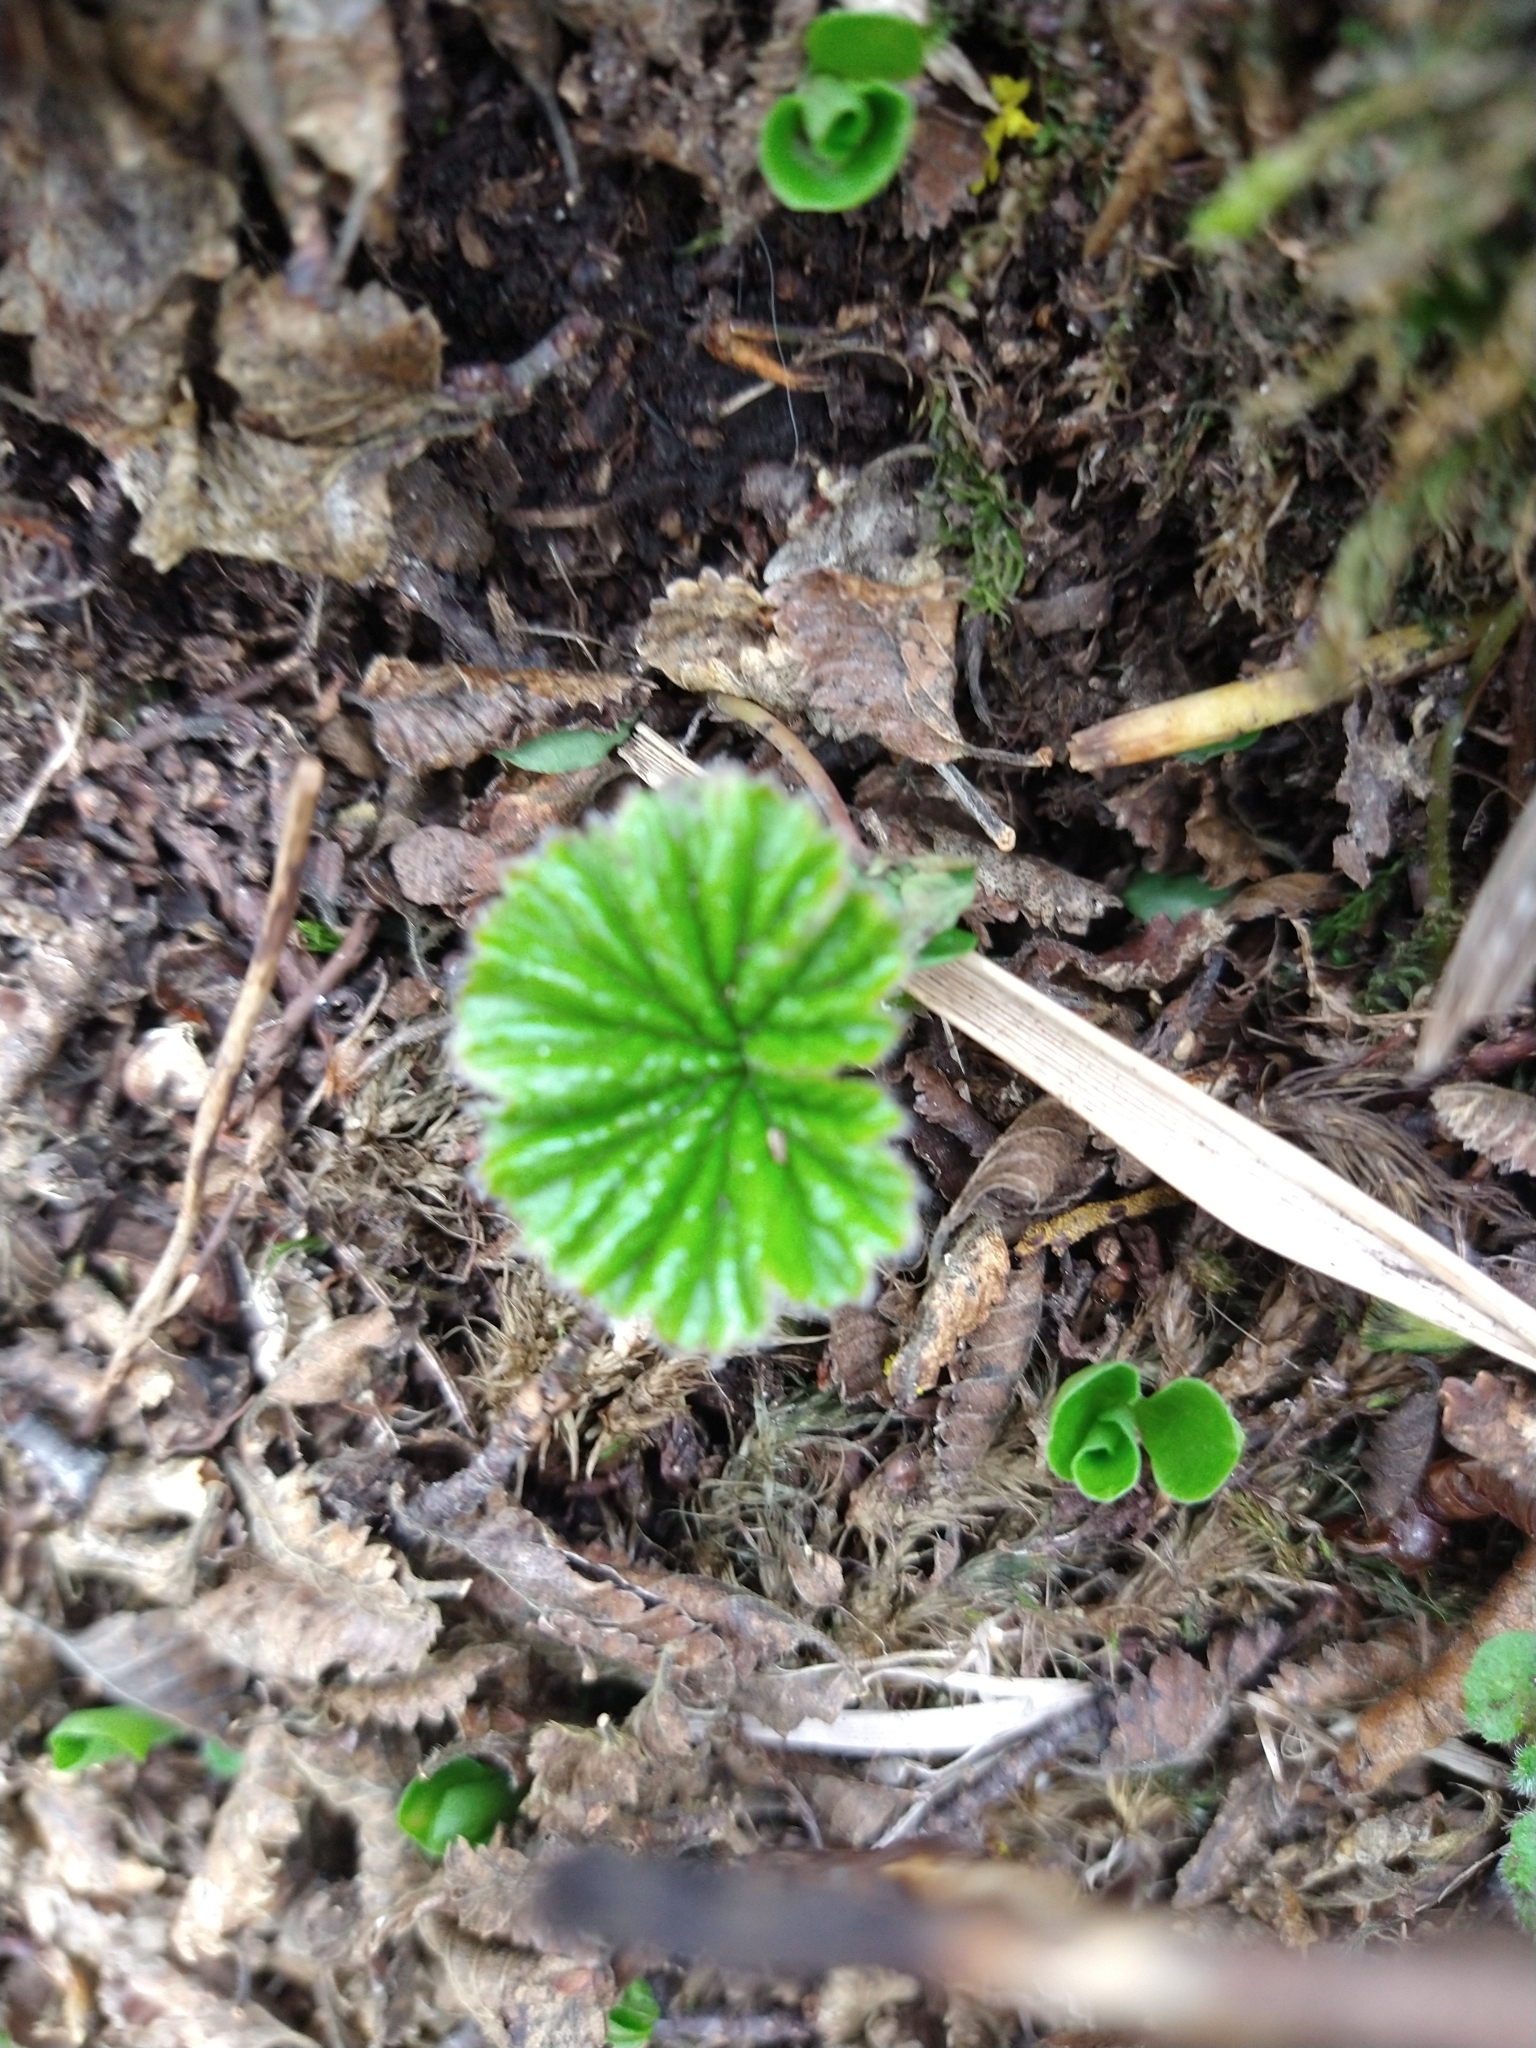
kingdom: Plantae
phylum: Tracheophyta
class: Magnoliopsida
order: Gunnerales
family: Gunneraceae
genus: Gunnera
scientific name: Gunnera magellanica
